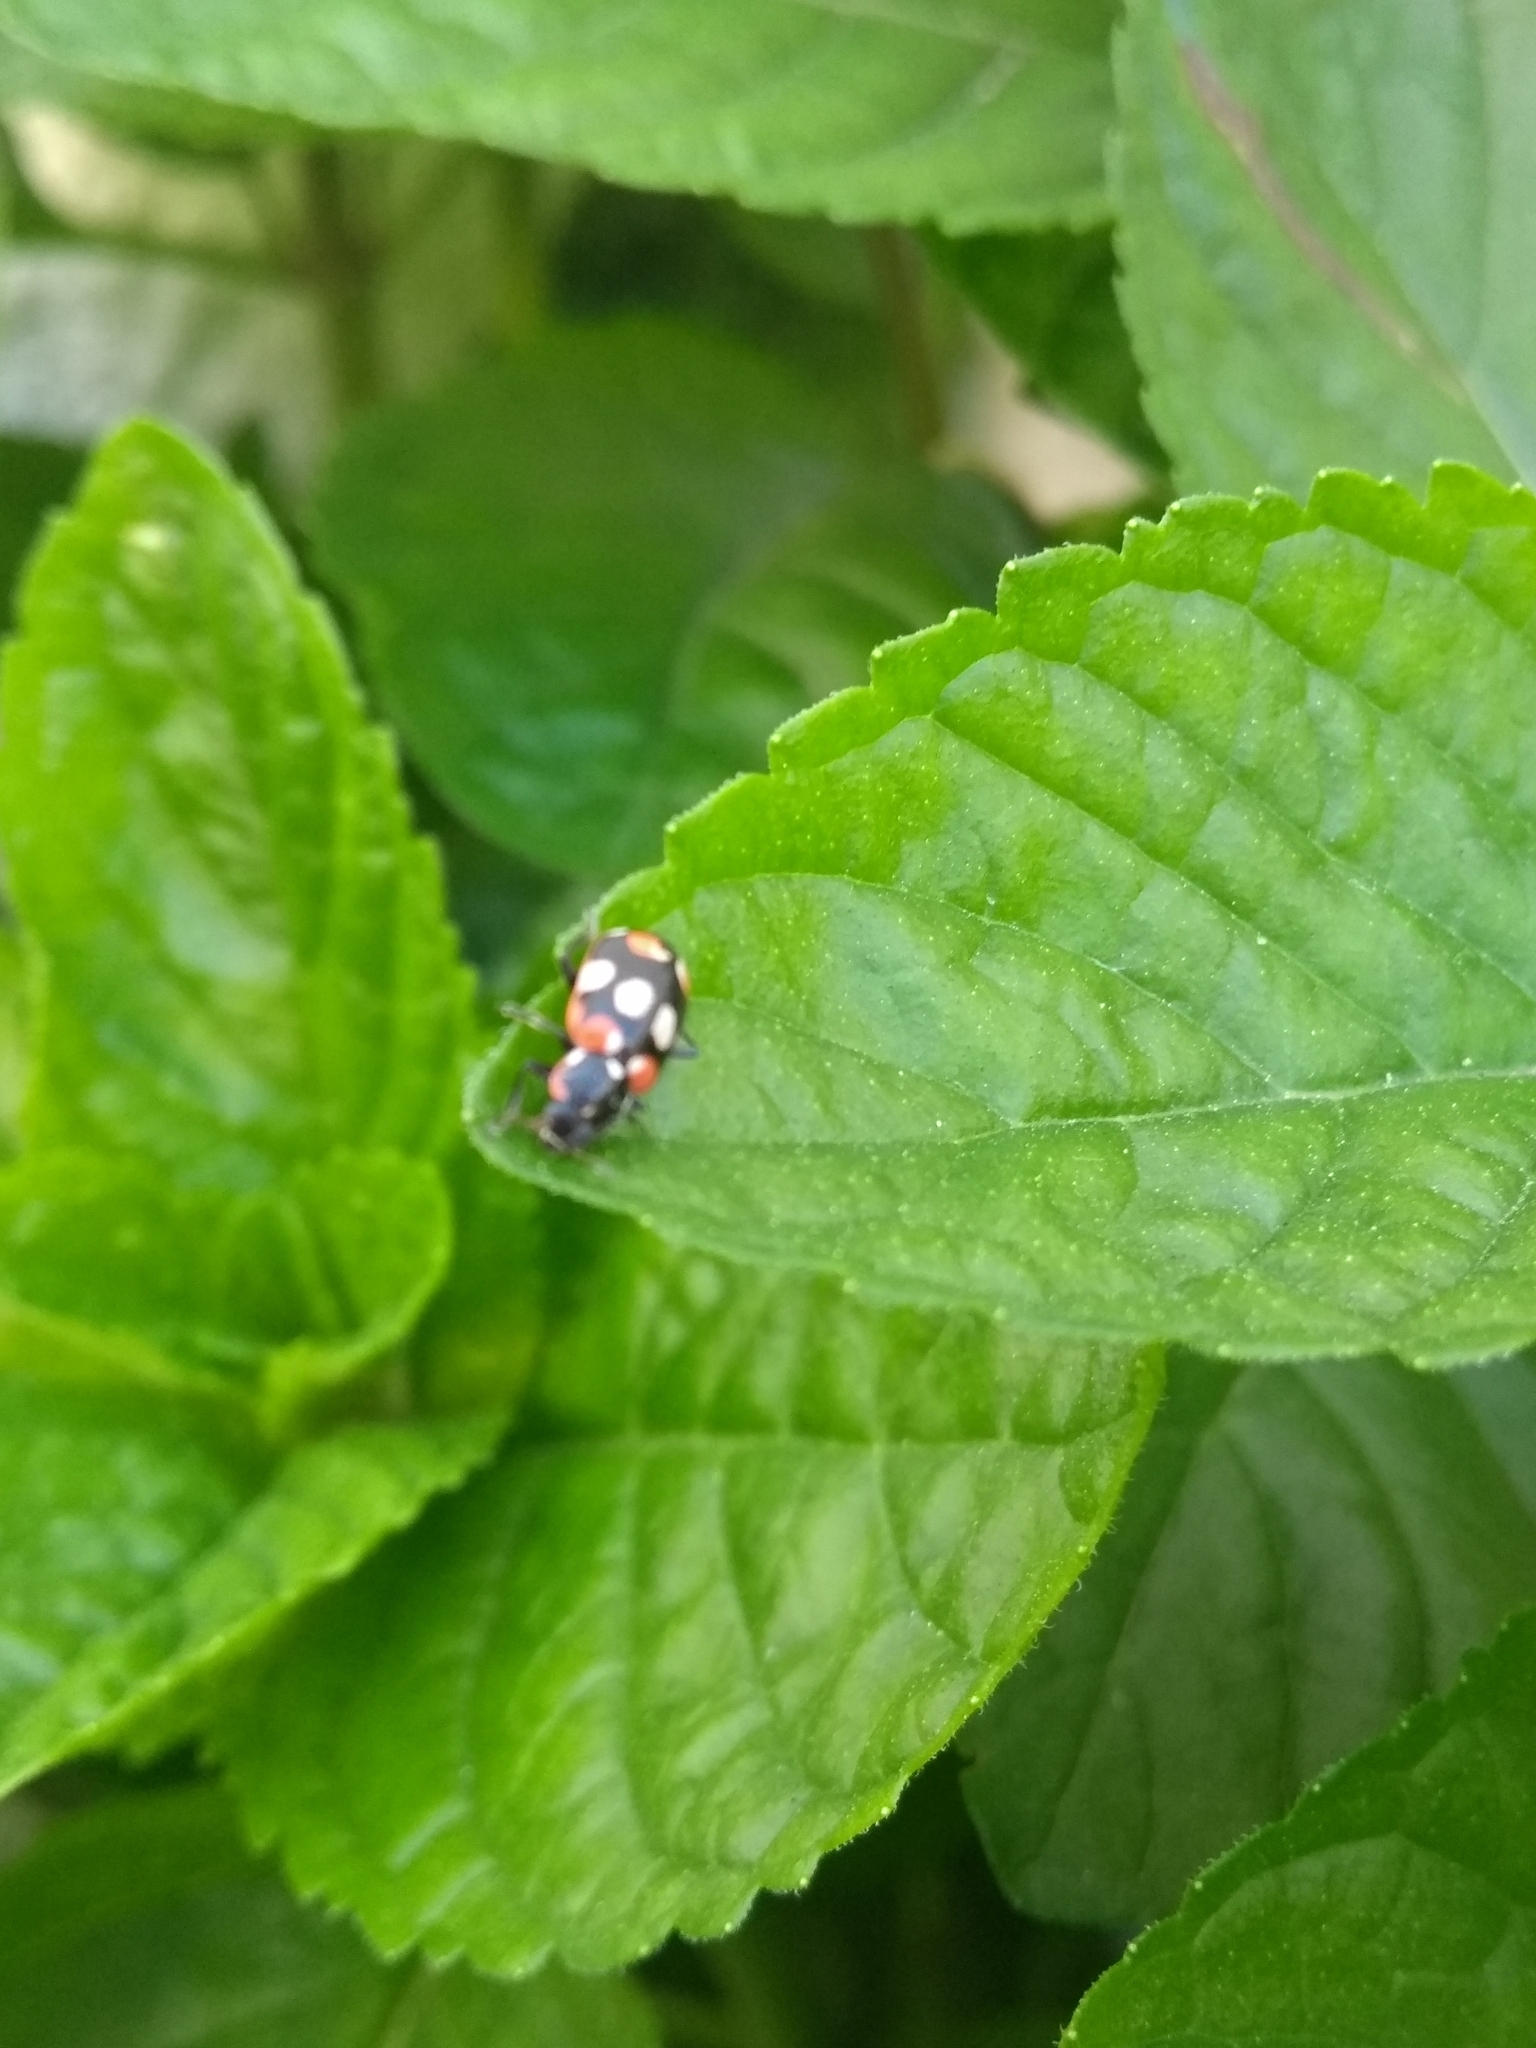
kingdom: Animalia
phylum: Arthropoda
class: Insecta
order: Coleoptera
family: Coccinellidae
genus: Eriopis
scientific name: Eriopis connexa
